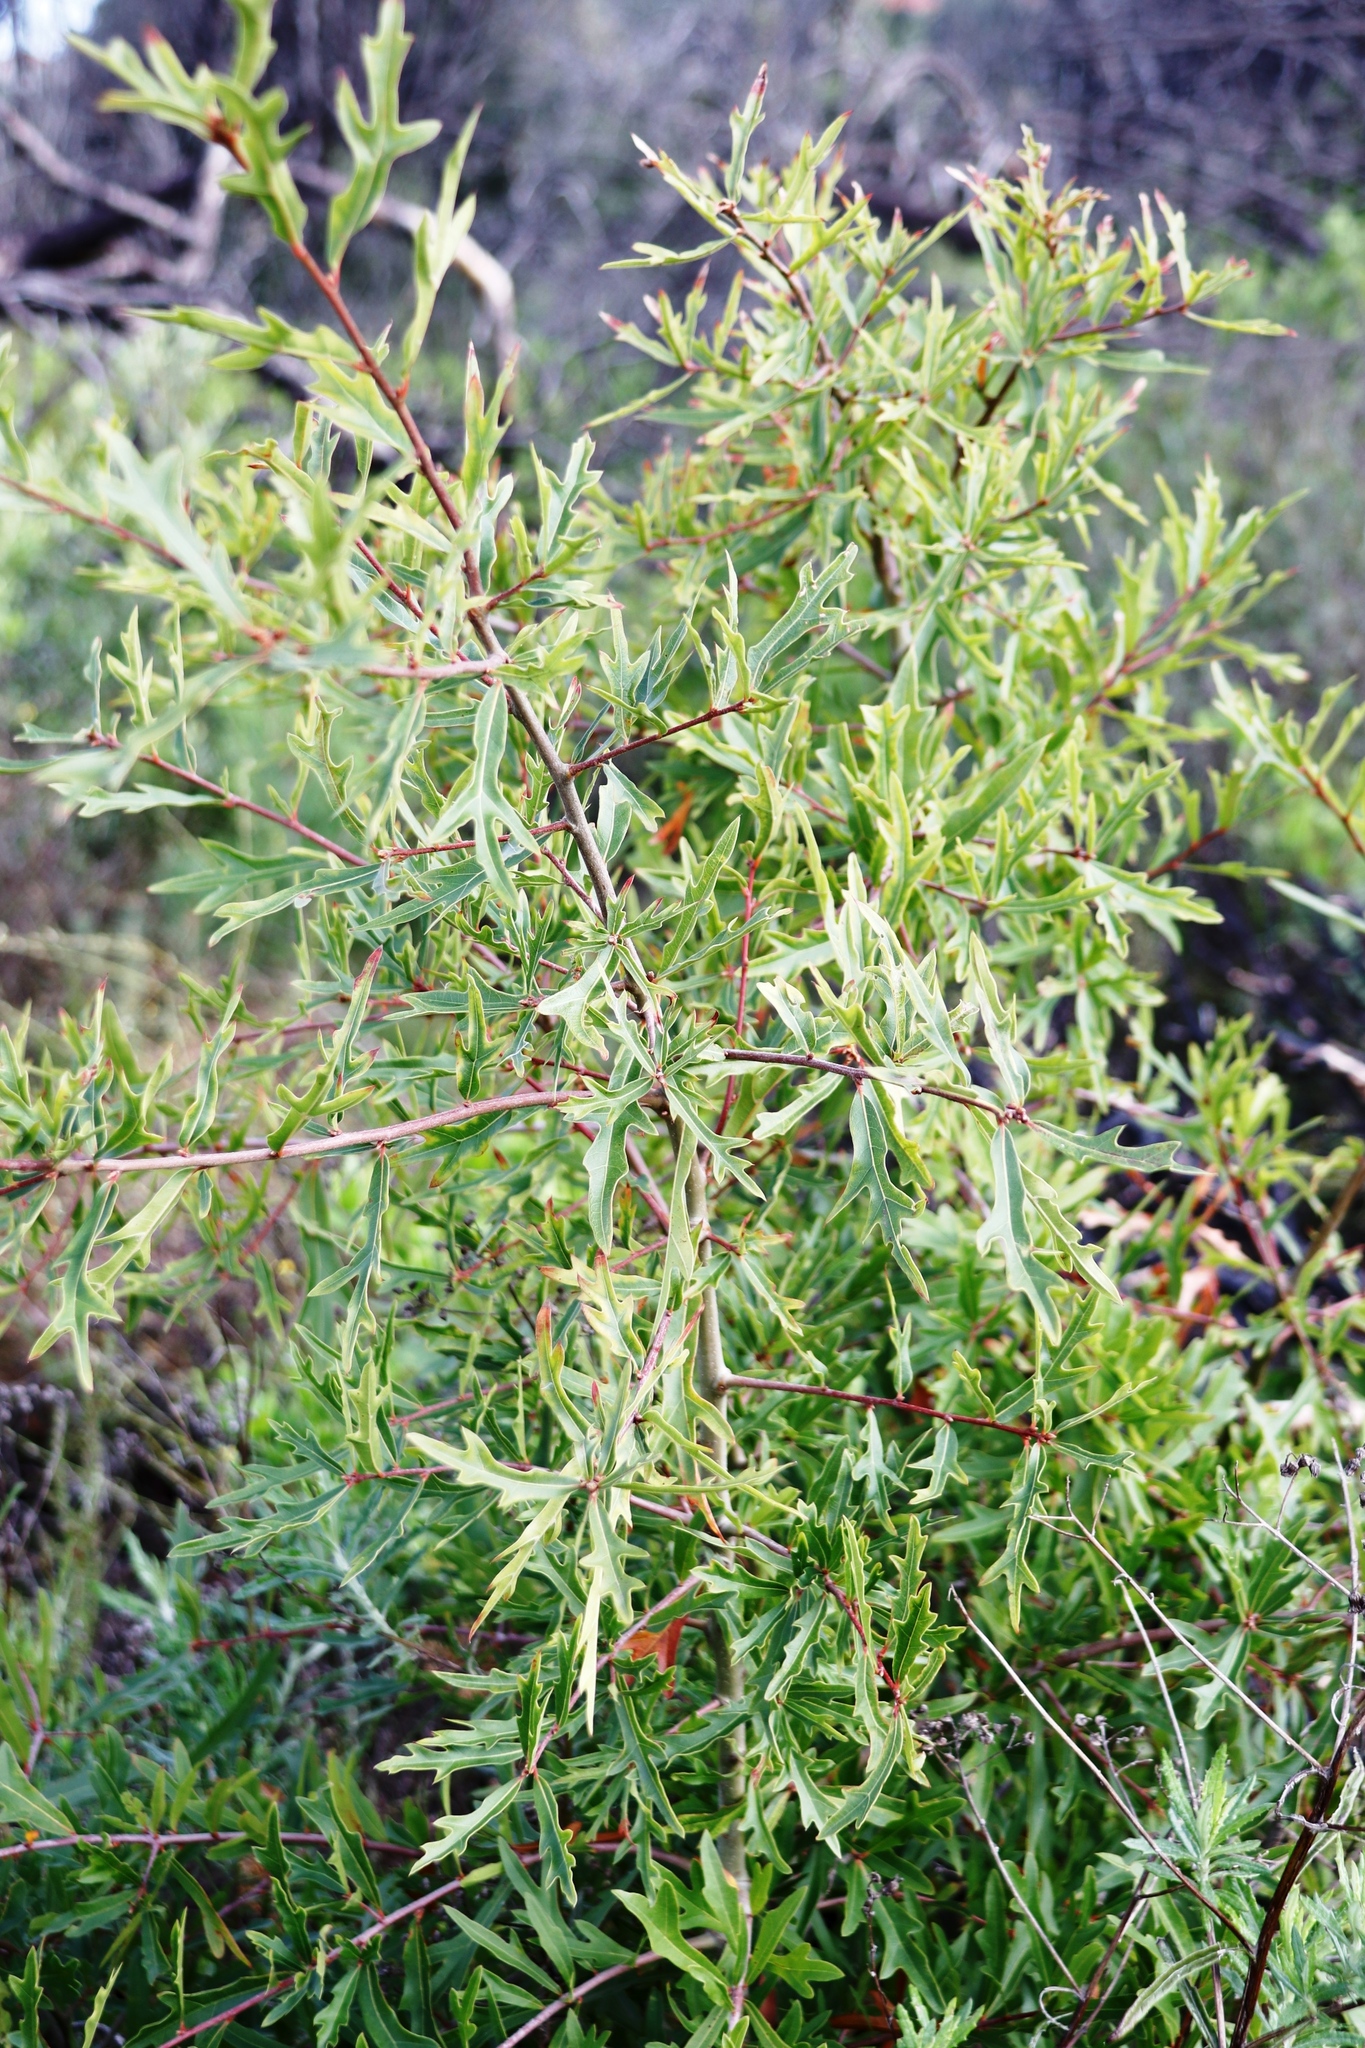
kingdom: Plantae
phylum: Tracheophyta
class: Magnoliopsida
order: Fagales
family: Fagaceae
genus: Quercus
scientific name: Quercus nigra
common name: Water oak
